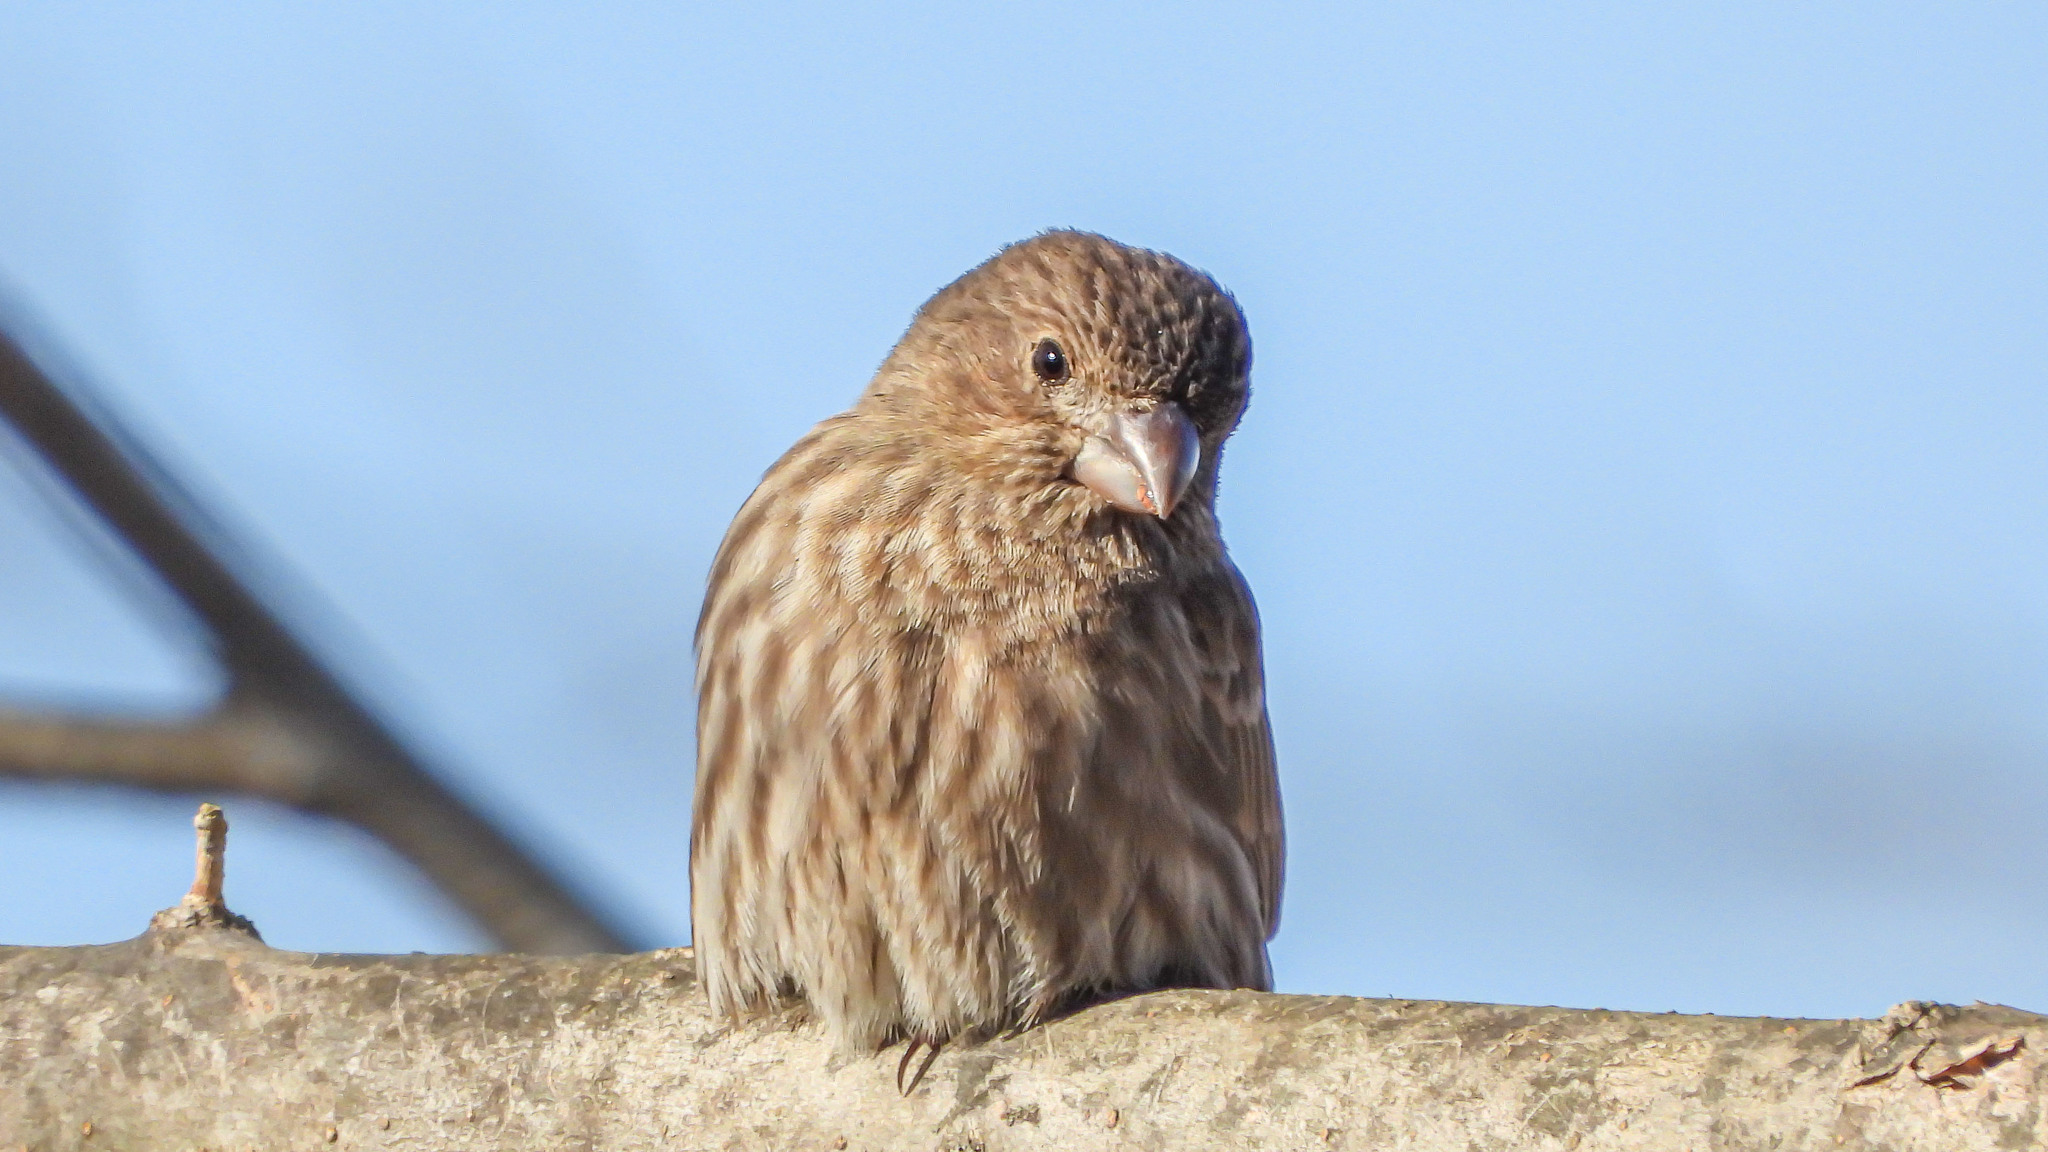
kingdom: Animalia
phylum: Chordata
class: Aves
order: Passeriformes
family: Fringillidae
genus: Haemorhous
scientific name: Haemorhous mexicanus
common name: House finch
